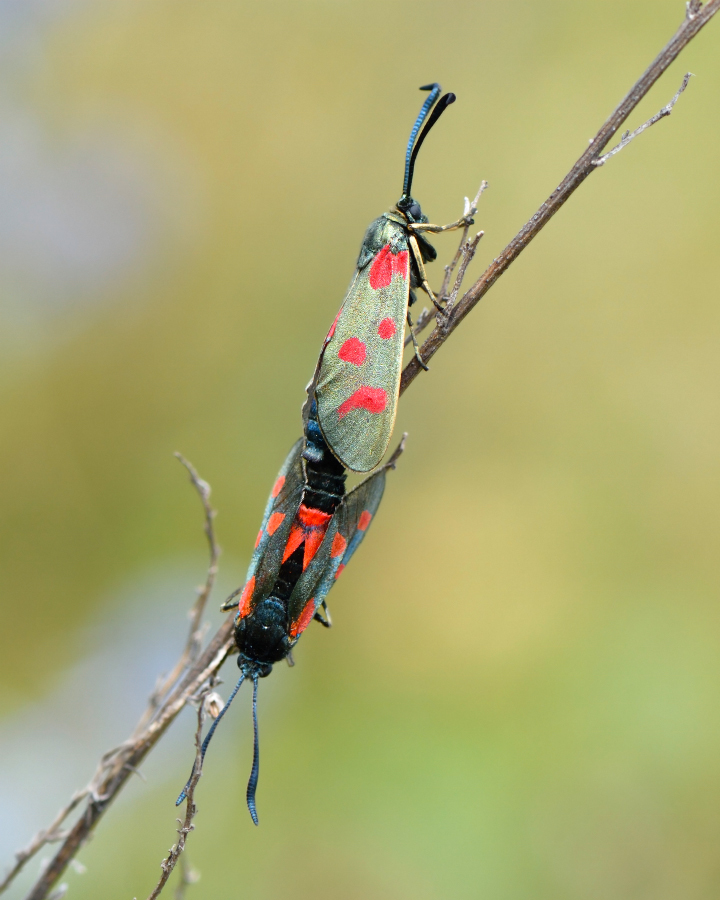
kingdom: Animalia
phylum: Arthropoda
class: Insecta
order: Lepidoptera
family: Zygaenidae
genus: Zygaena
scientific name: Zygaena centaureae
